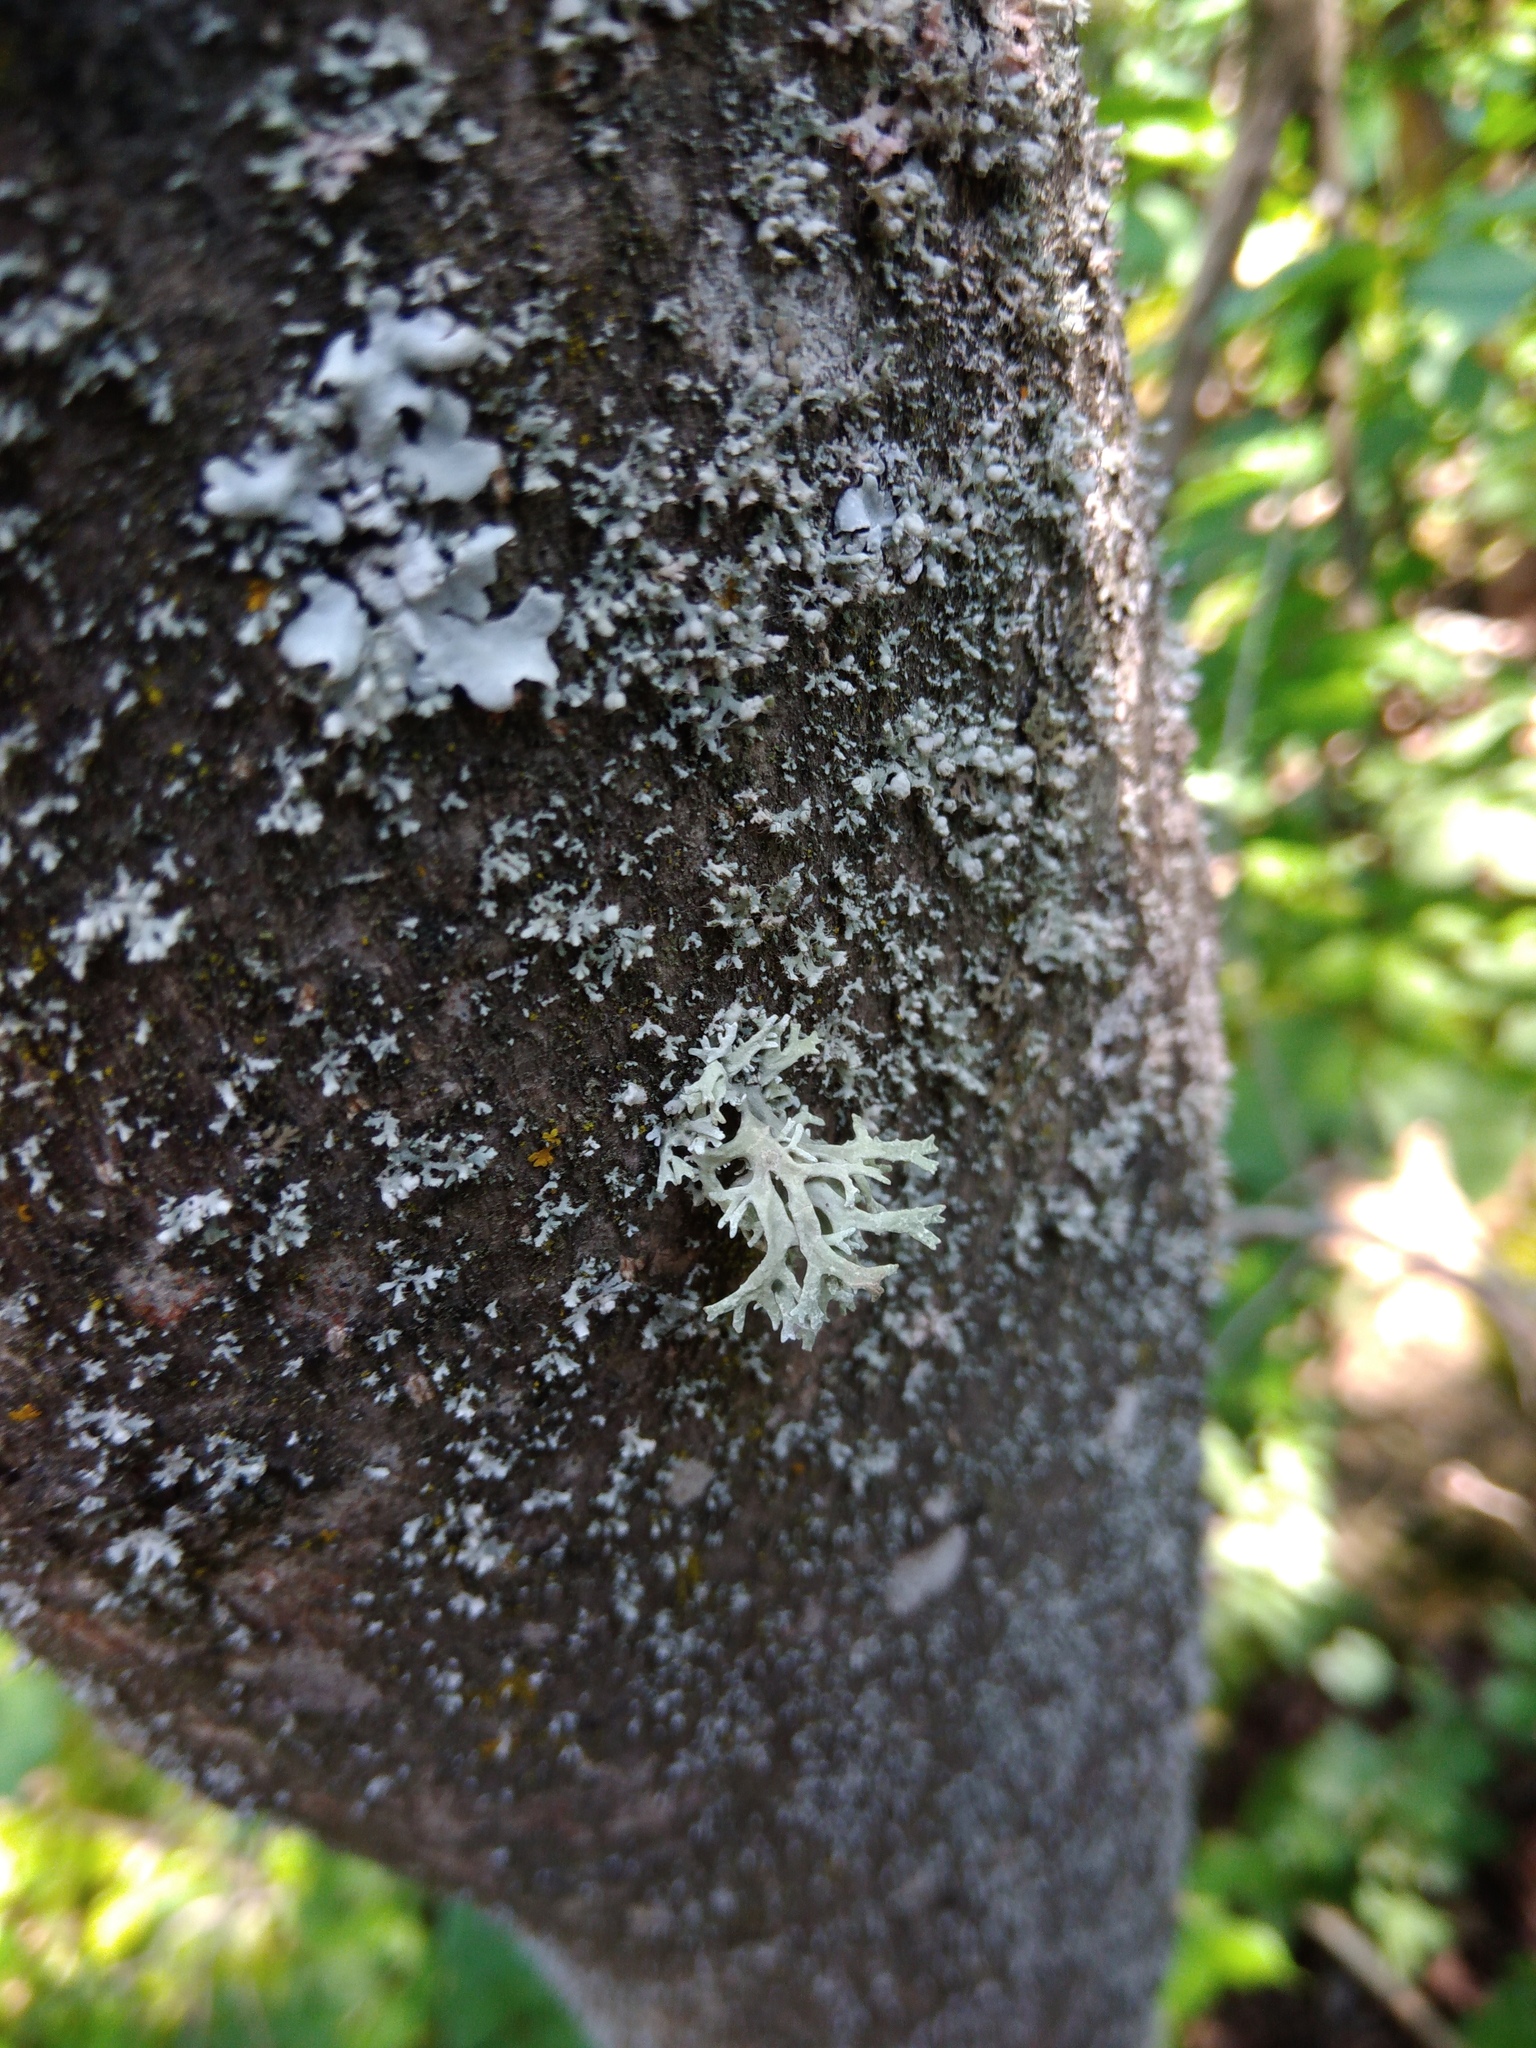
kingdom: Fungi
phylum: Ascomycota
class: Lecanoromycetes
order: Lecanorales
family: Parmeliaceae
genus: Evernia
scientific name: Evernia prunastri
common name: Oak moss
